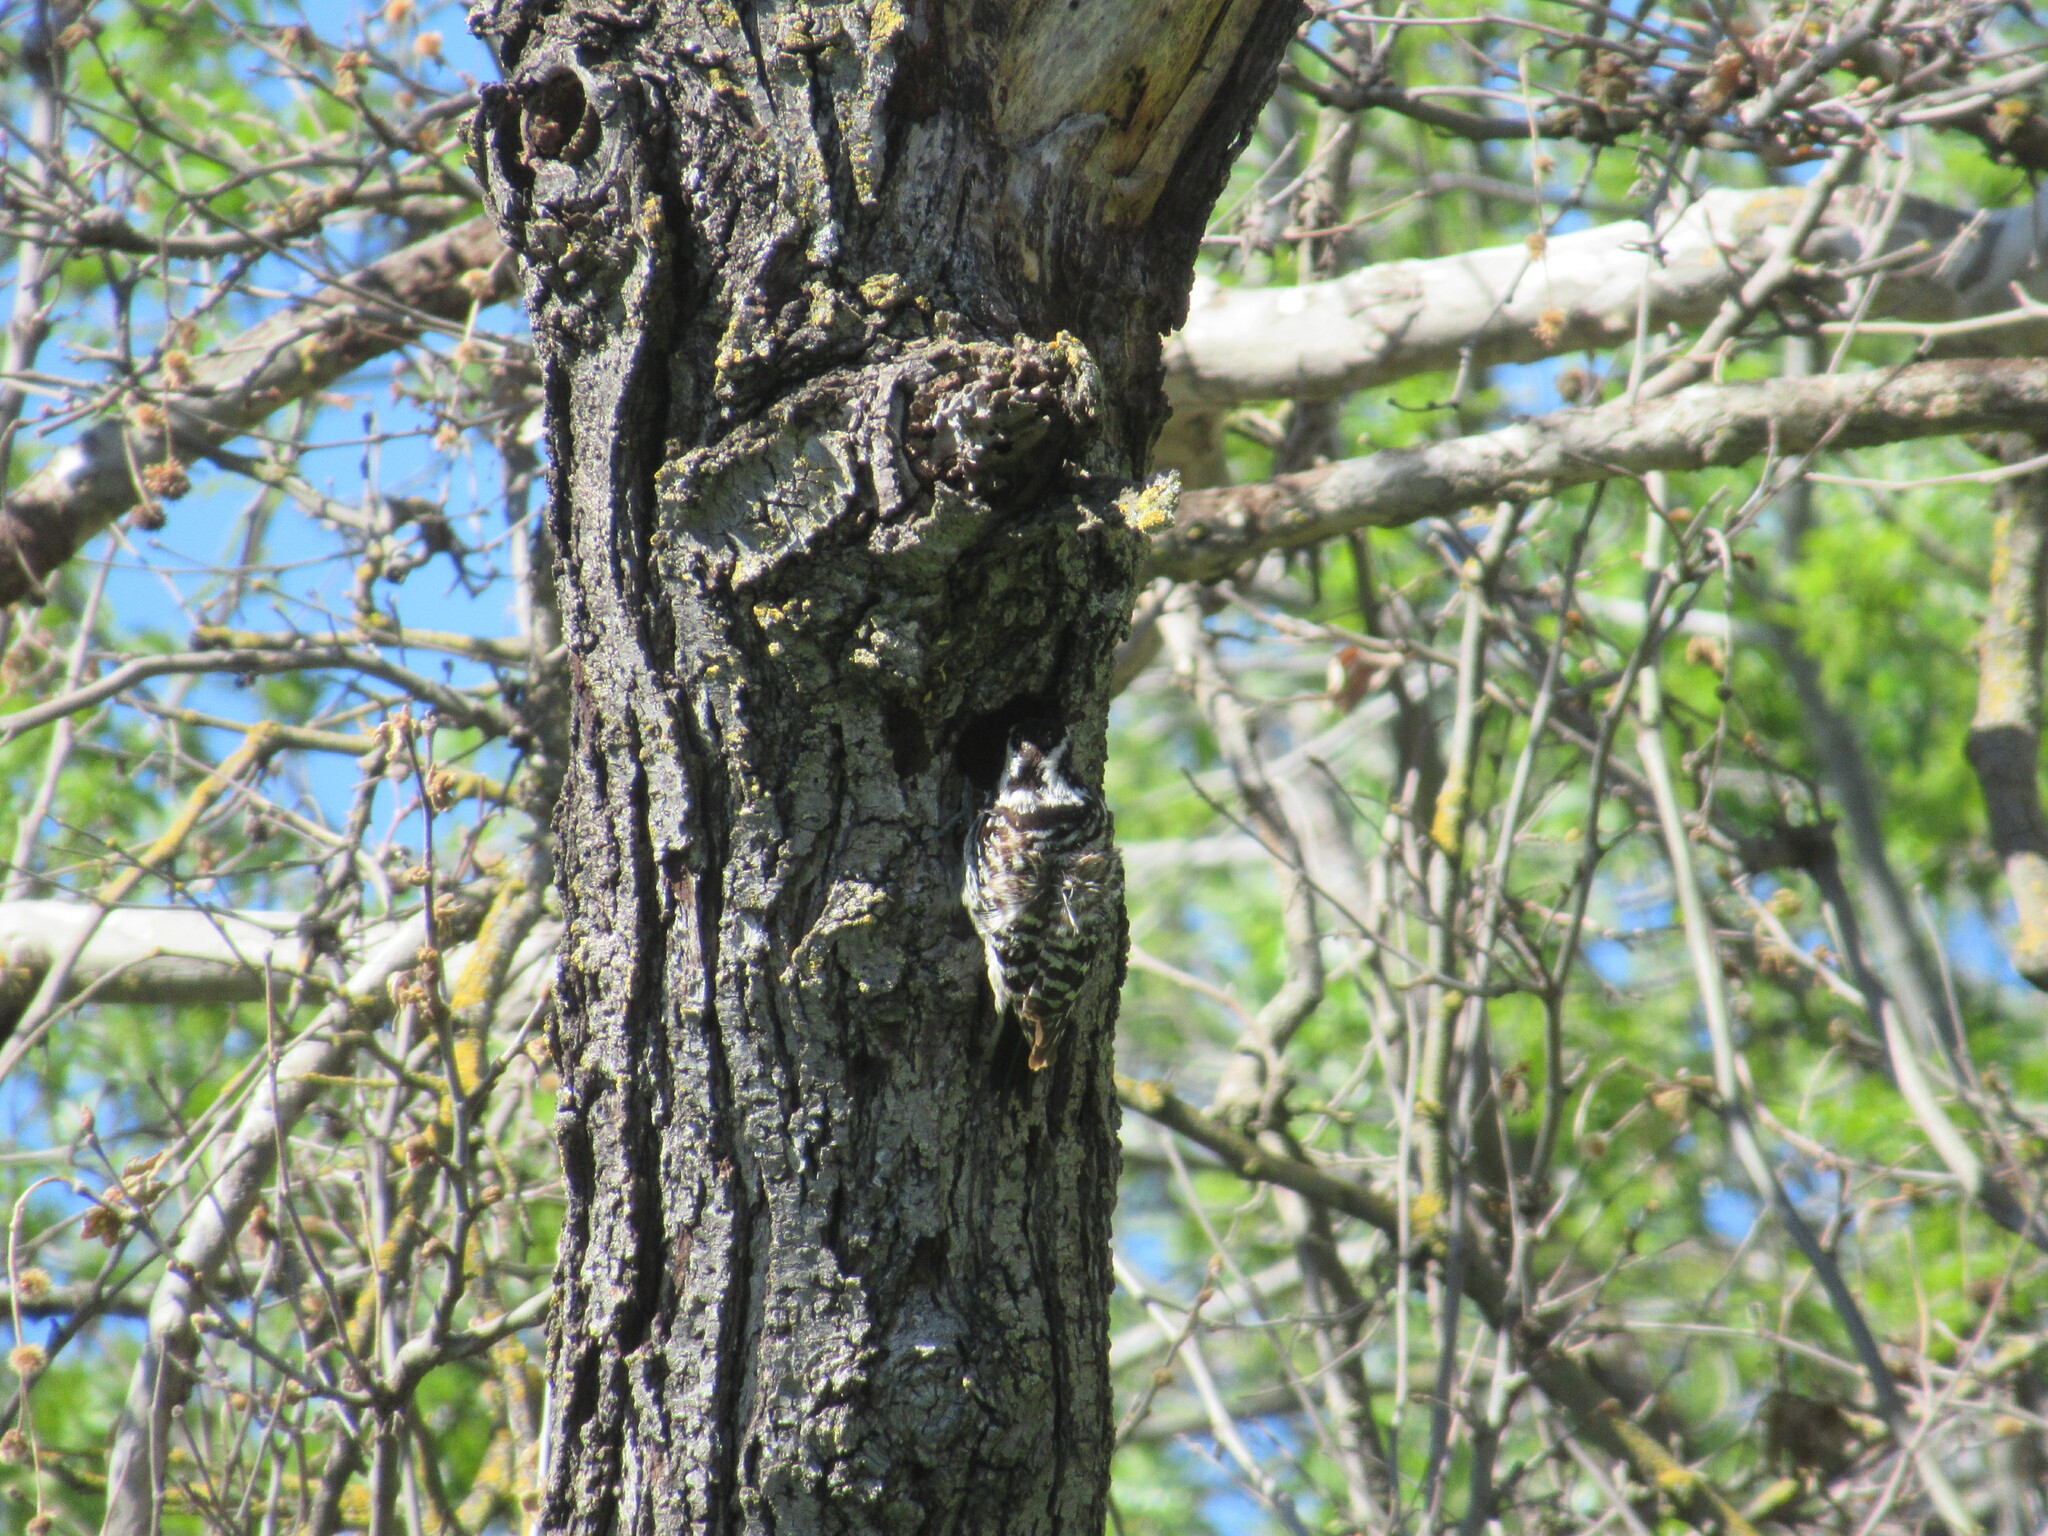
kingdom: Animalia
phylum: Chordata
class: Aves
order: Piciformes
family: Picidae
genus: Dryobates
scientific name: Dryobates nuttallii
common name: Nuttall's woodpecker
